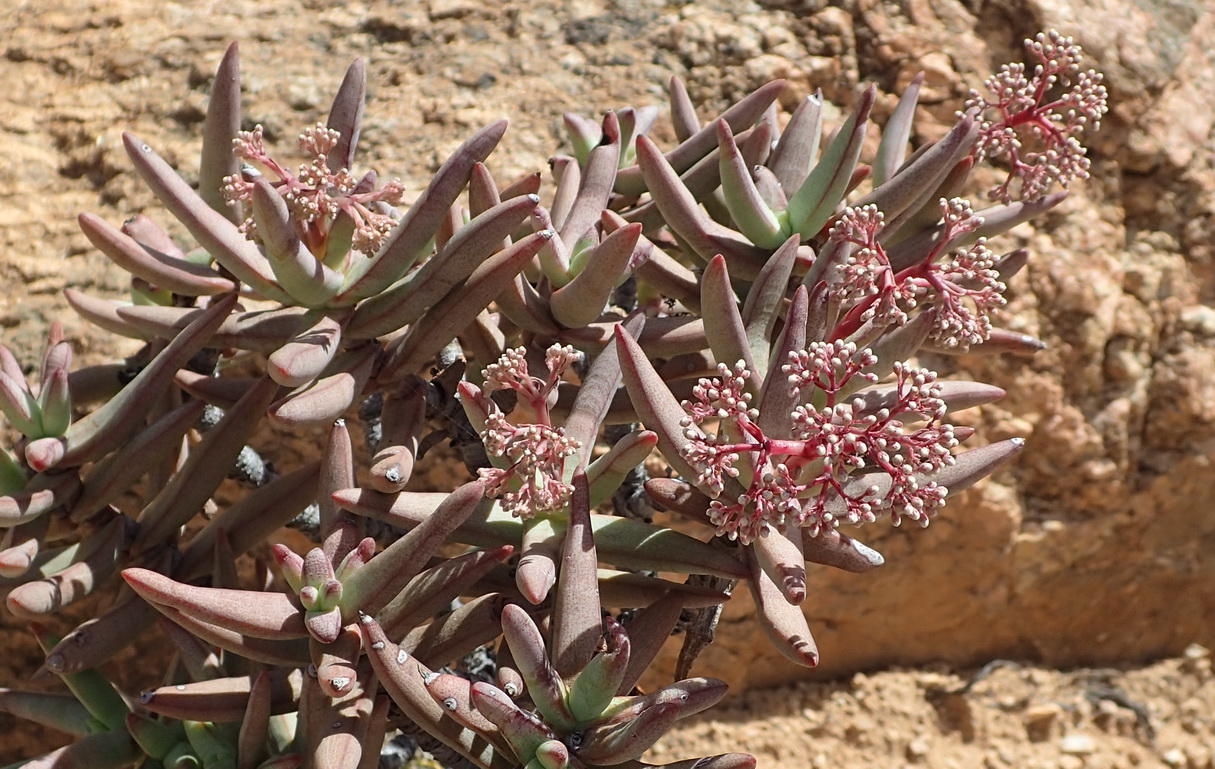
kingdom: Plantae
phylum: Tracheophyta
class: Magnoliopsida
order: Saxifragales
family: Crassulaceae
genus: Crassula
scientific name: Crassula macowaniana
